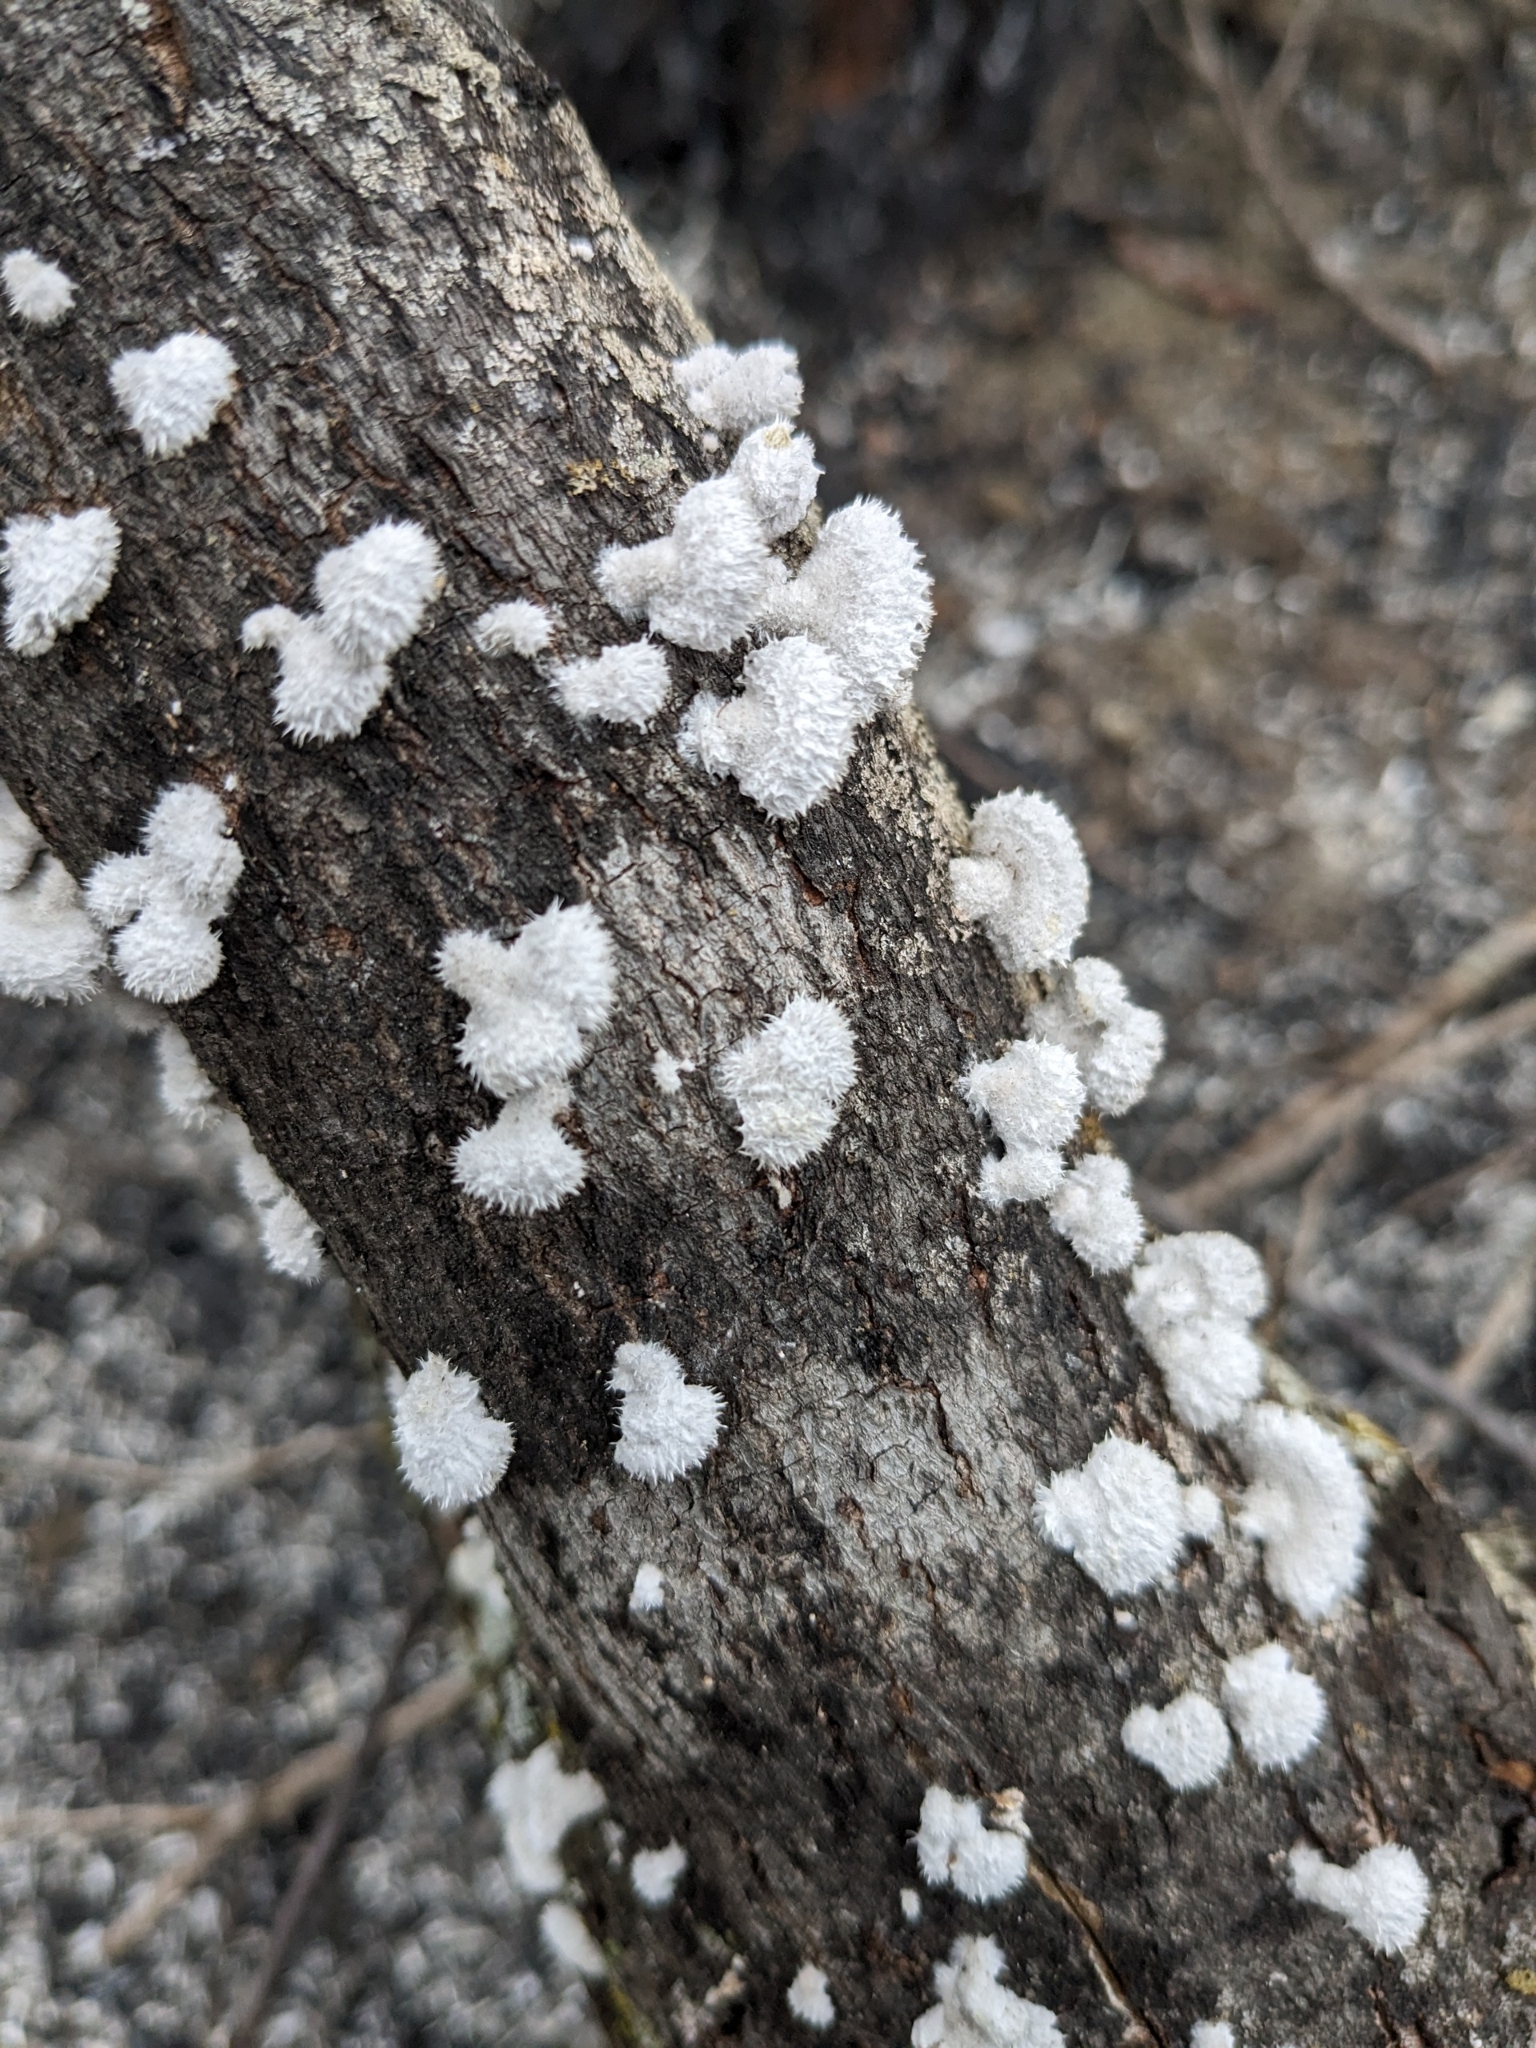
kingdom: Fungi
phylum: Basidiomycota
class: Agaricomycetes
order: Agaricales
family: Schizophyllaceae
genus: Schizophyllum
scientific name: Schizophyllum commune
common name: Common porecrust
